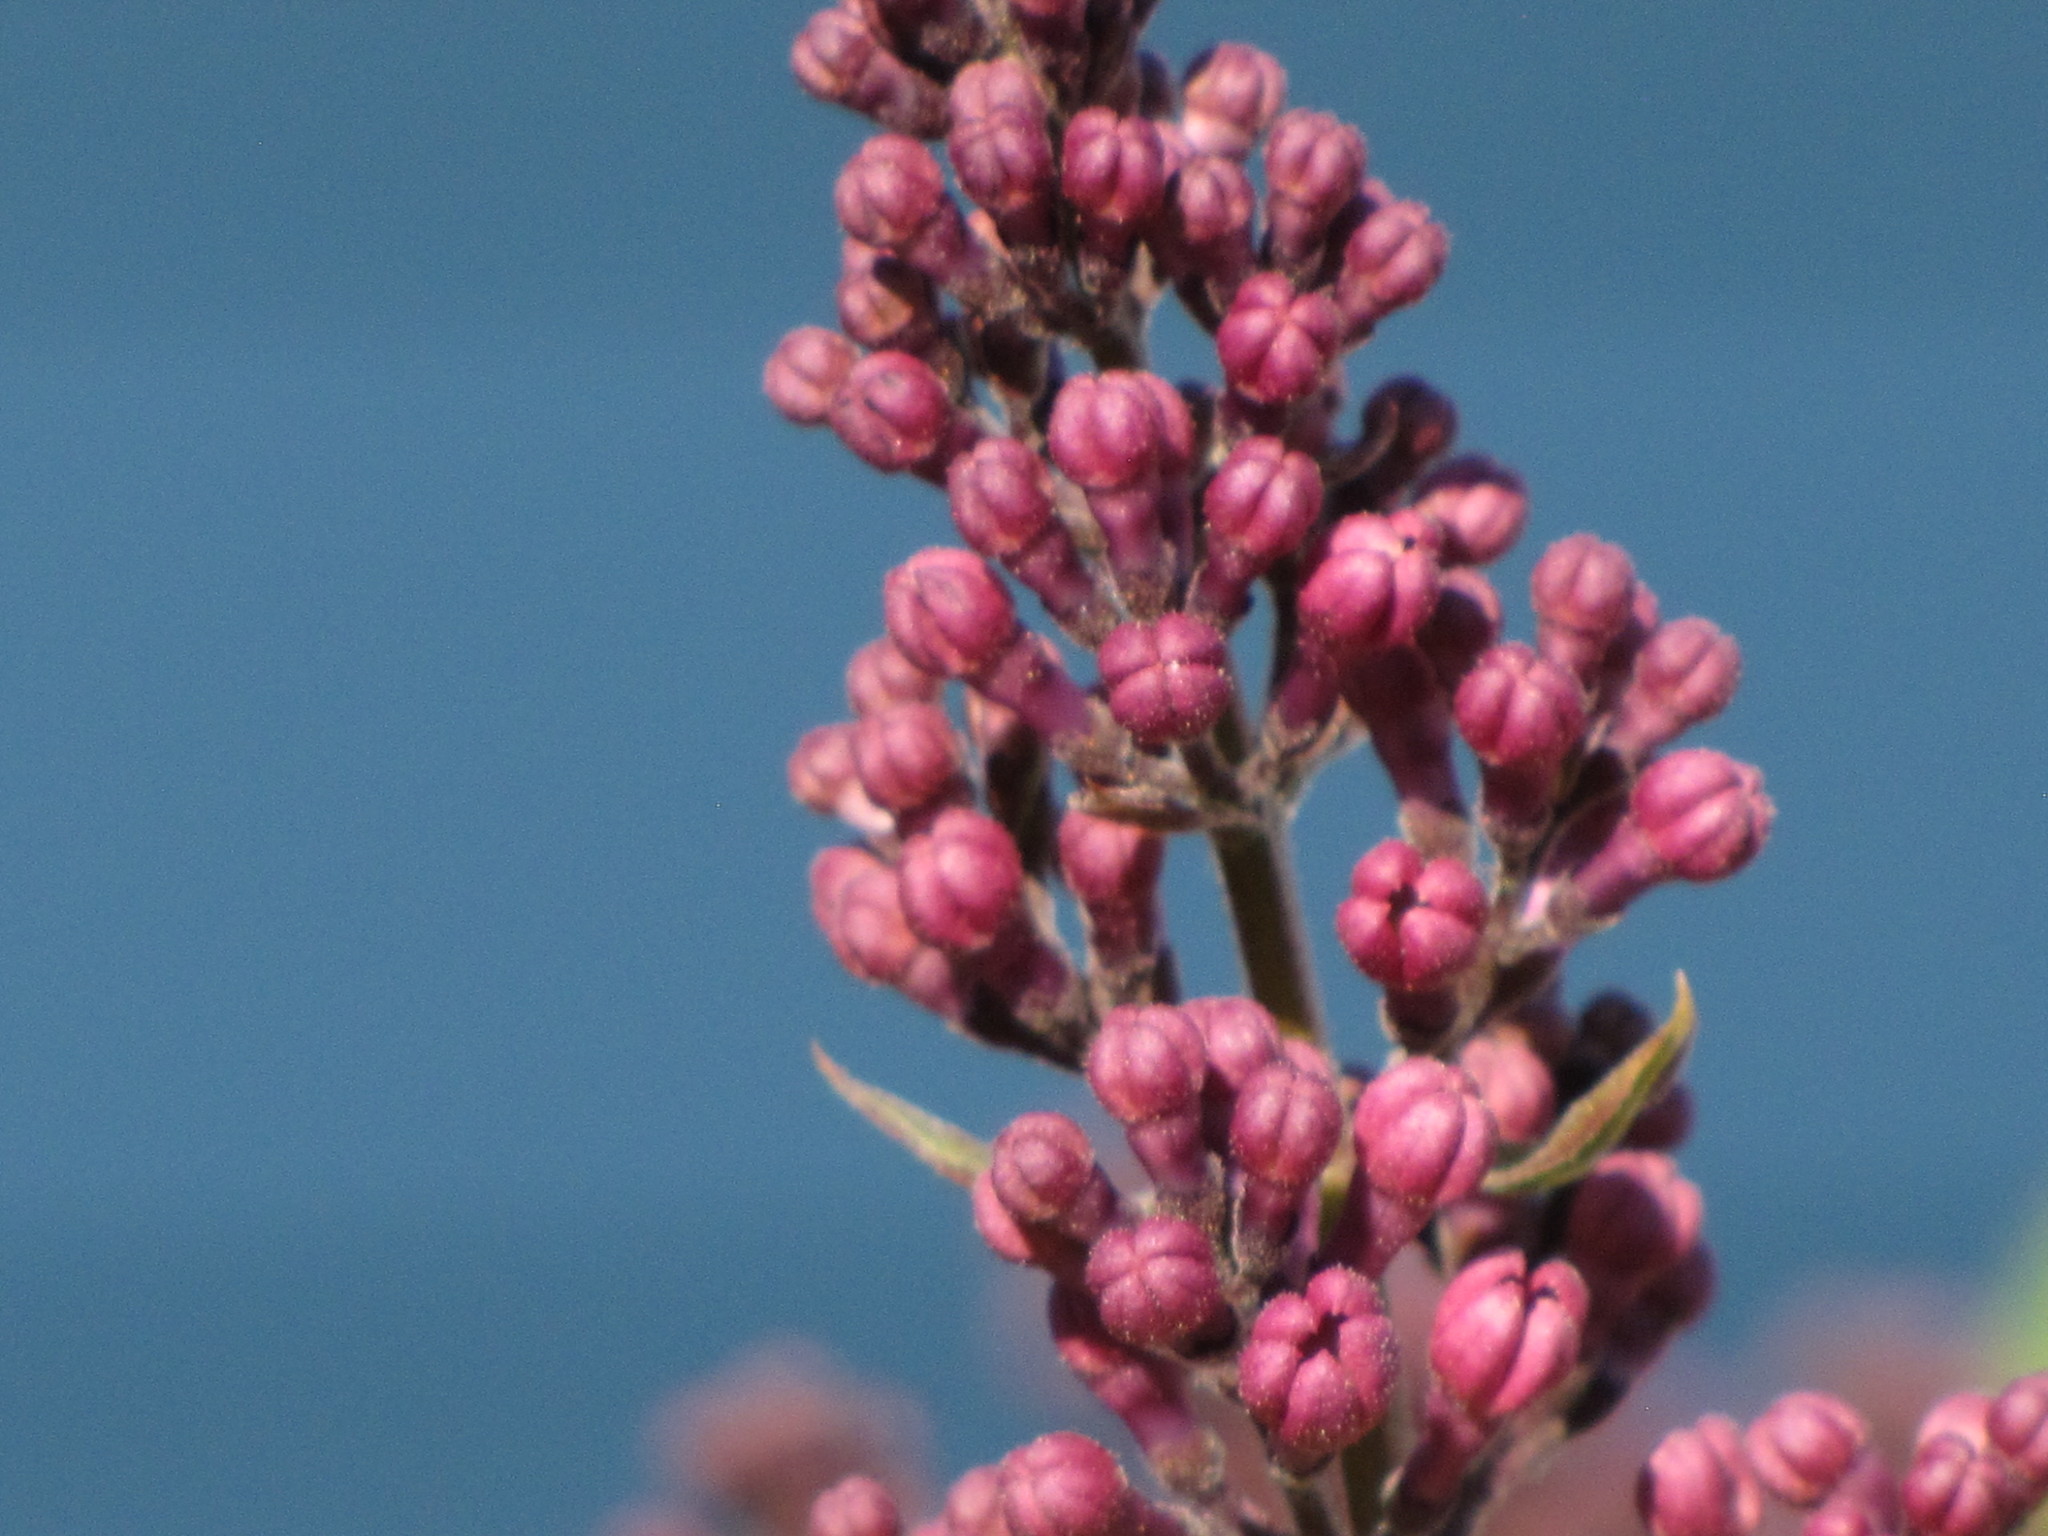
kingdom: Plantae
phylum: Tracheophyta
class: Magnoliopsida
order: Lamiales
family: Oleaceae
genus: Syringa
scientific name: Syringa vulgaris
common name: Common lilac
